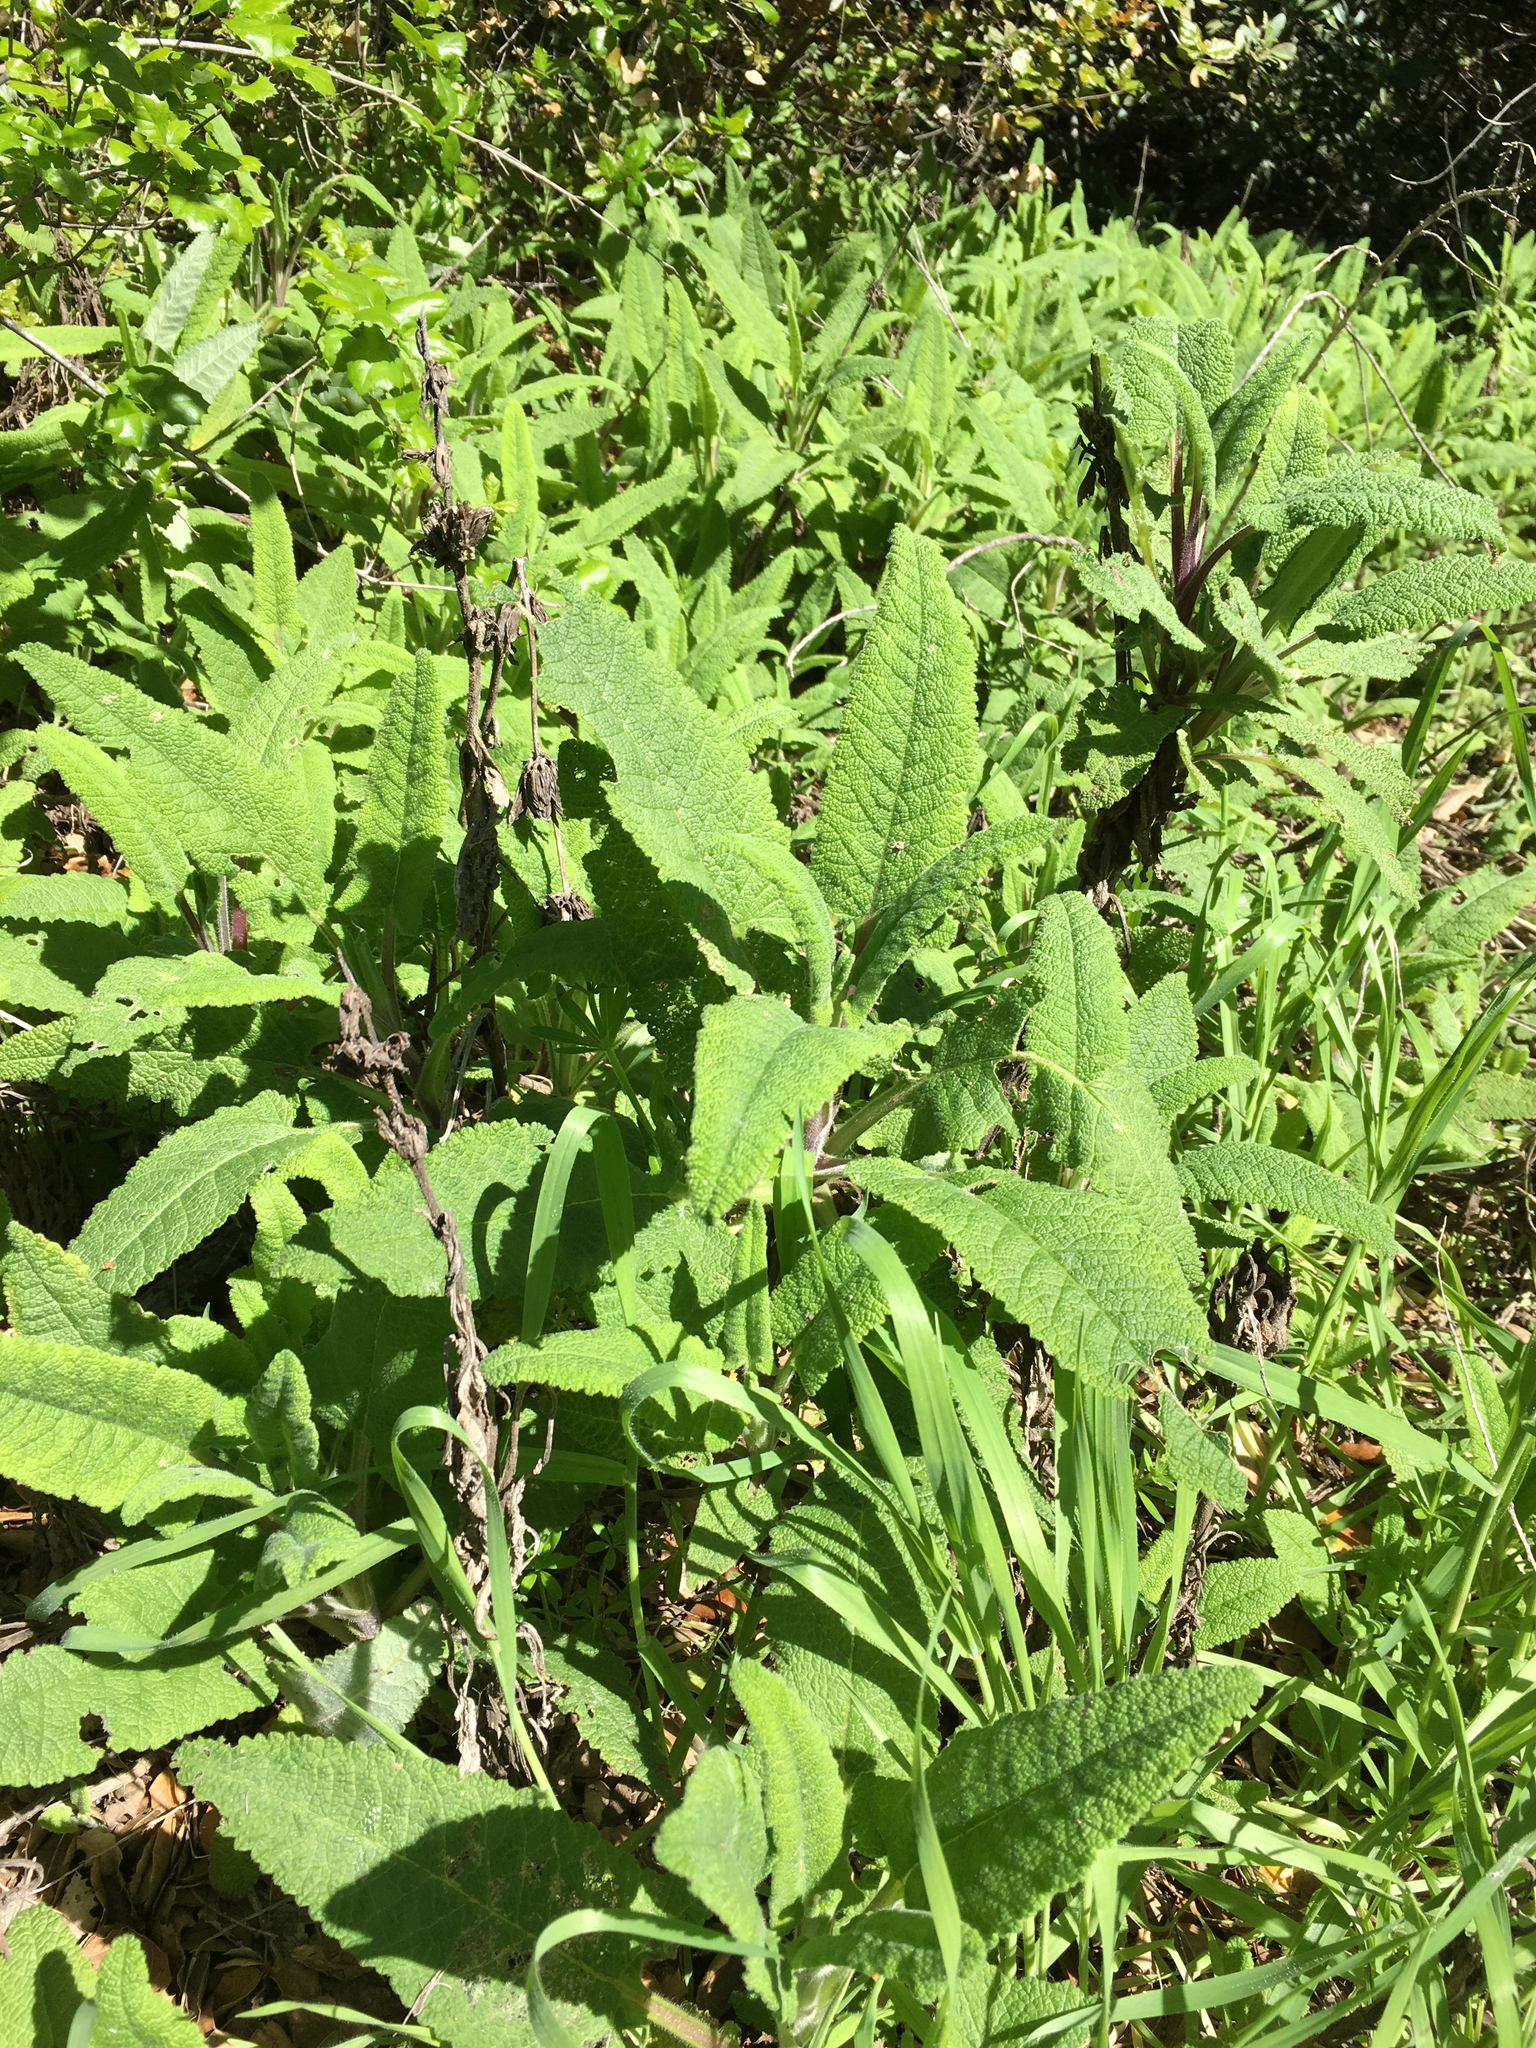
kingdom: Plantae
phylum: Tracheophyta
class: Magnoliopsida
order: Lamiales
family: Lamiaceae
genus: Salvia
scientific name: Salvia spathacea
